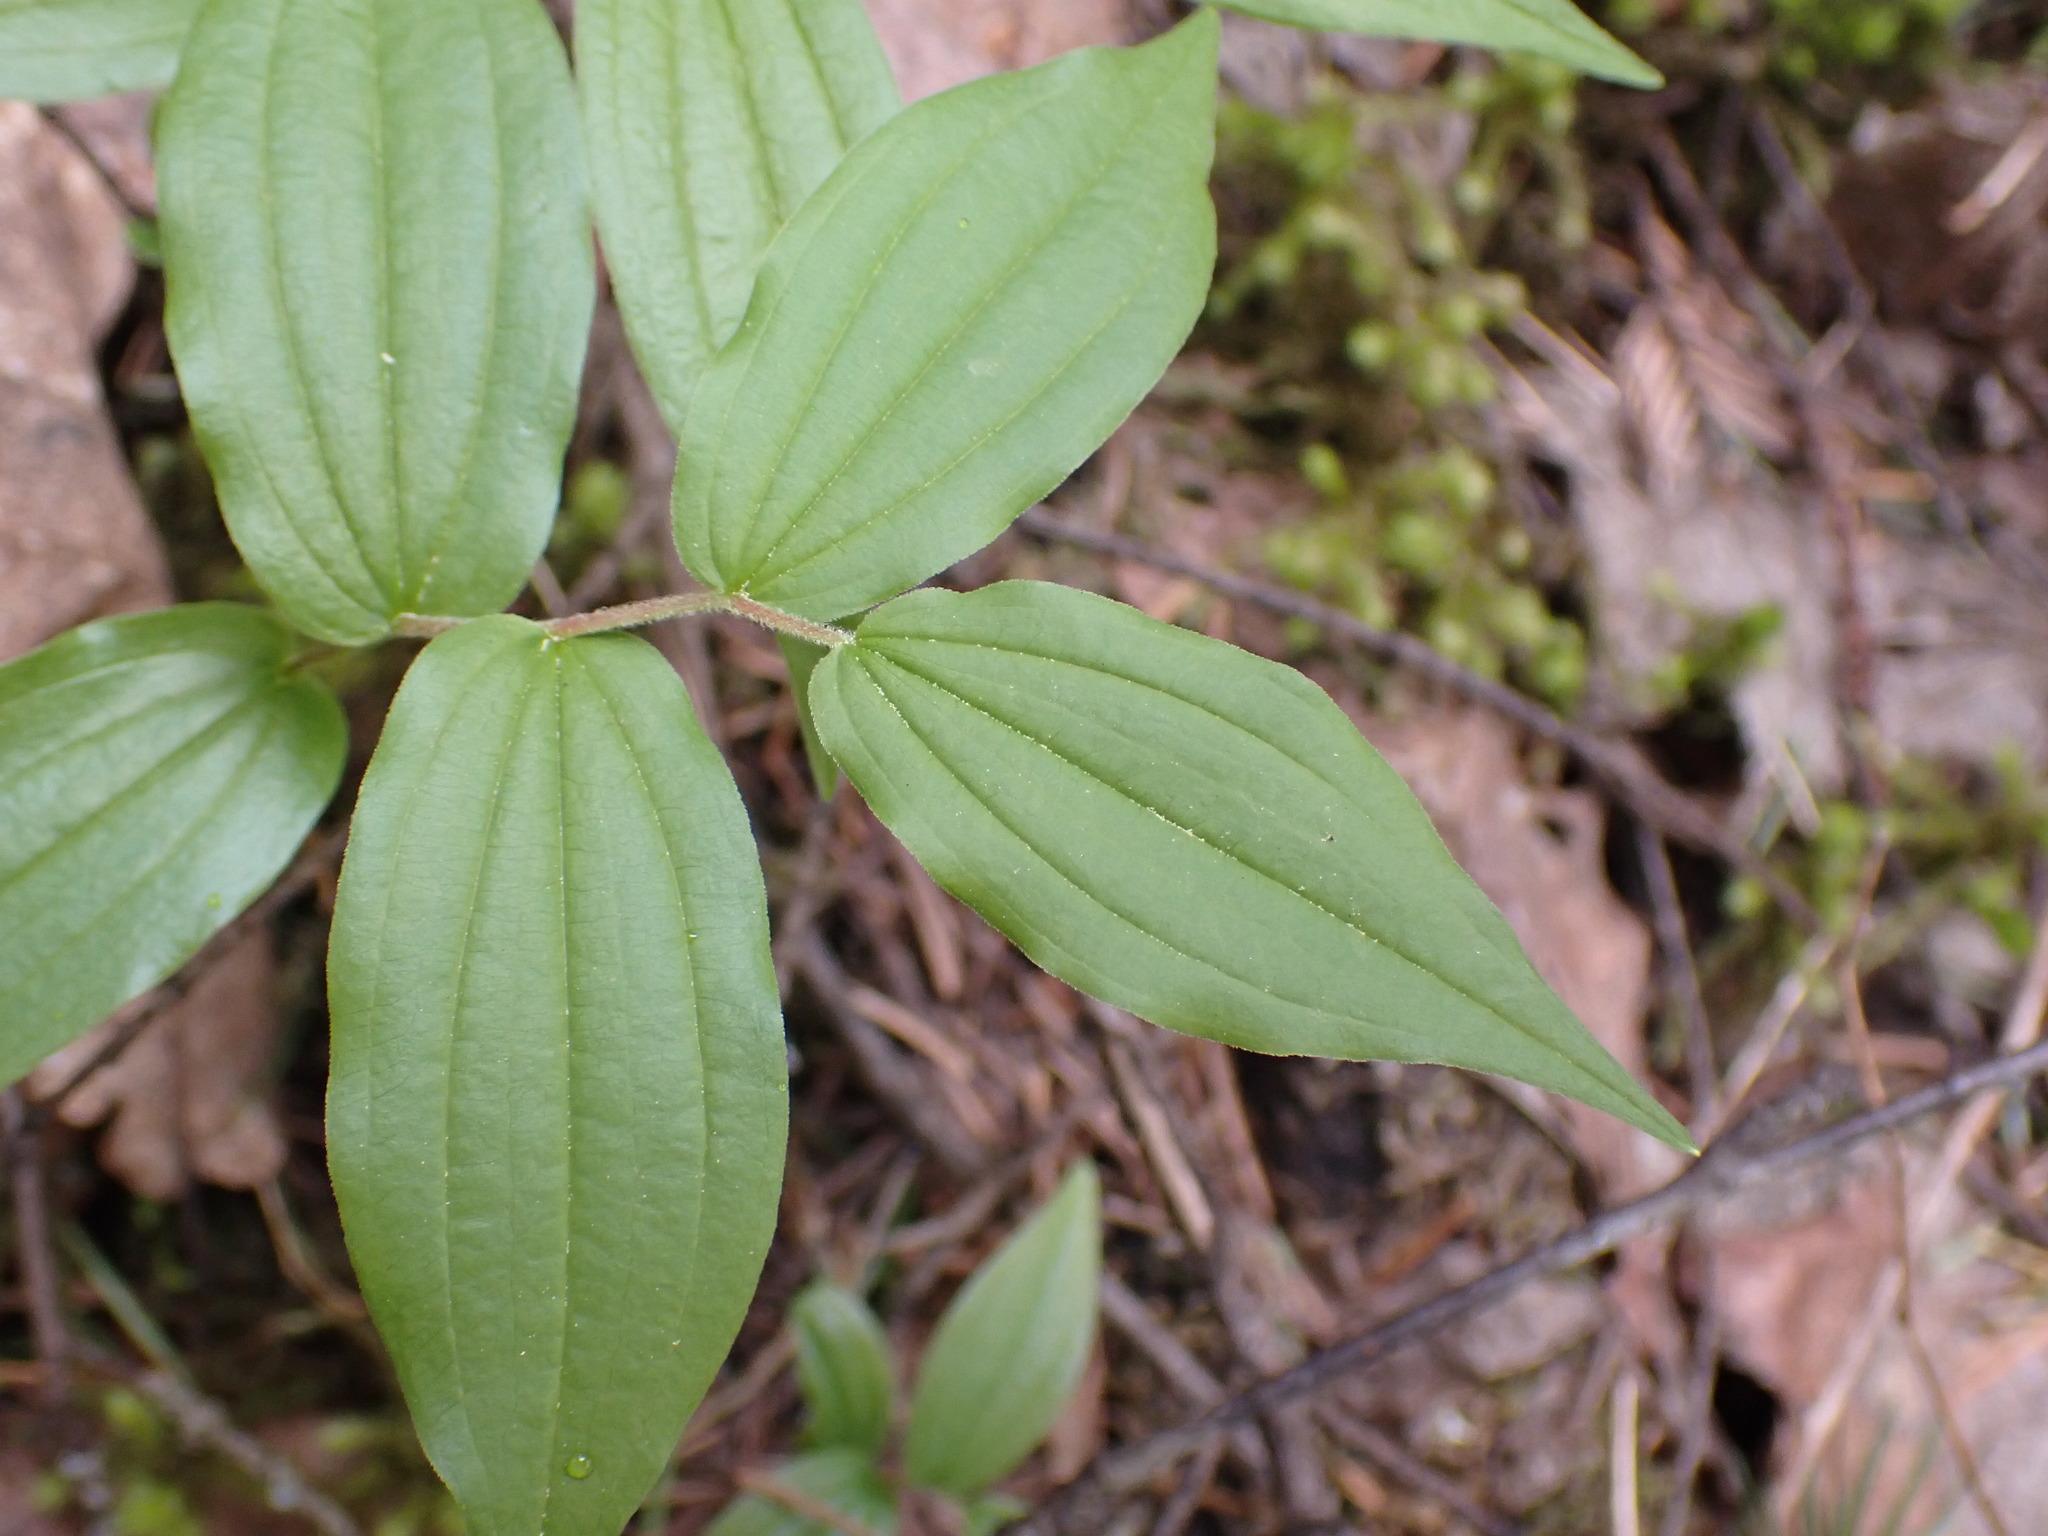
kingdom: Plantae
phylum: Tracheophyta
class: Liliopsida
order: Liliales
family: Liliaceae
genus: Prosartes
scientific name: Prosartes hookeri
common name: Fairy-bells
